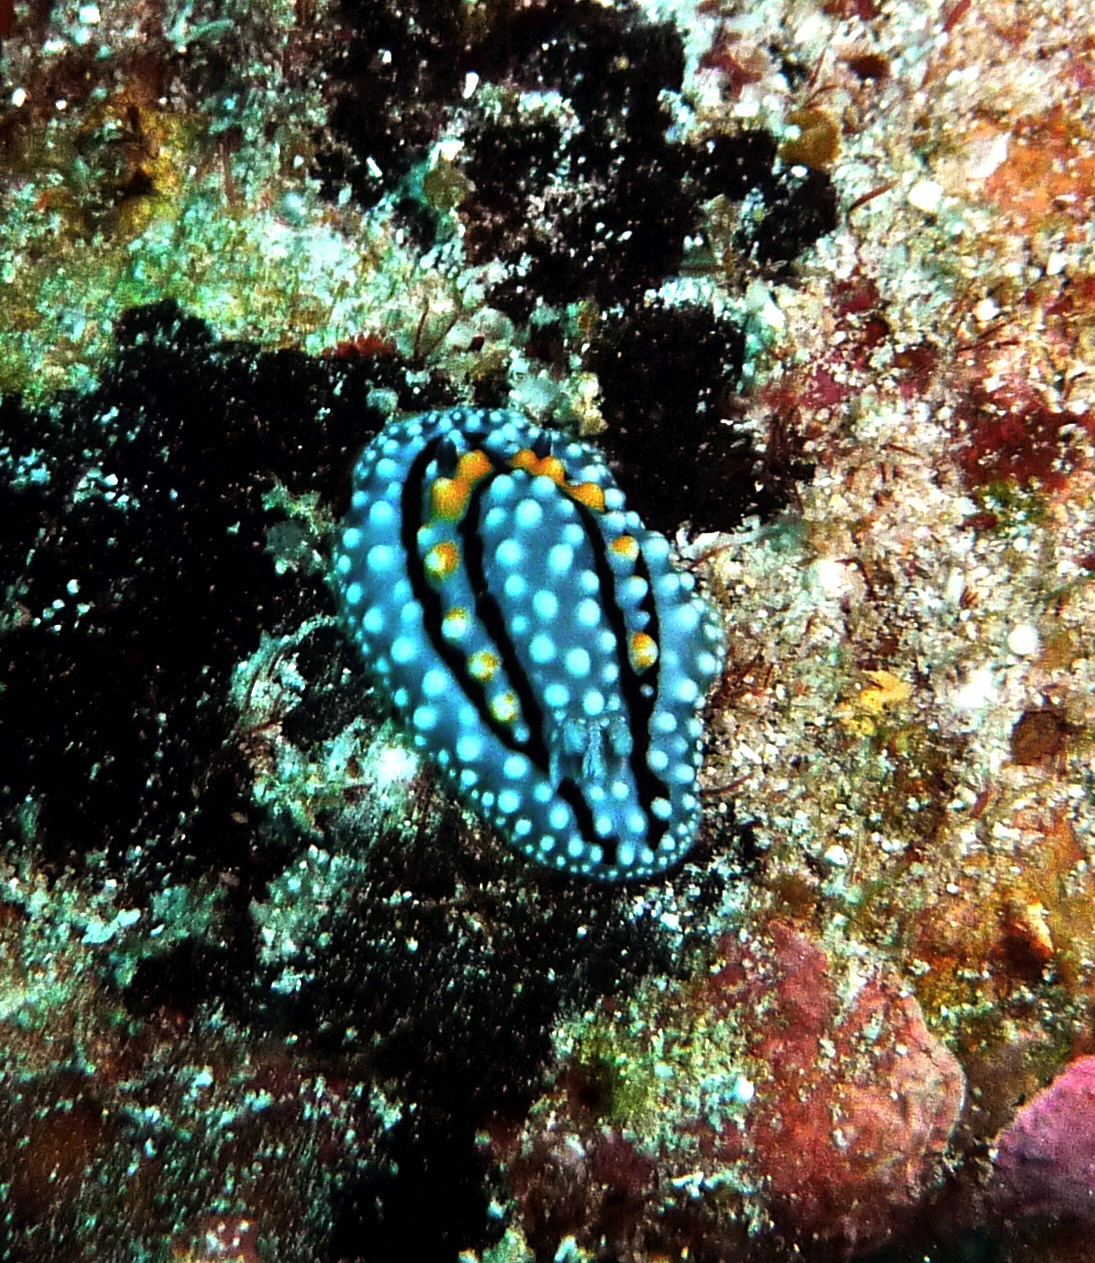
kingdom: Animalia
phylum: Mollusca
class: Gastropoda
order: Nudibranchia
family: Cadlinidae
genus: Aldisa
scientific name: Aldisa erwinkoehleri
